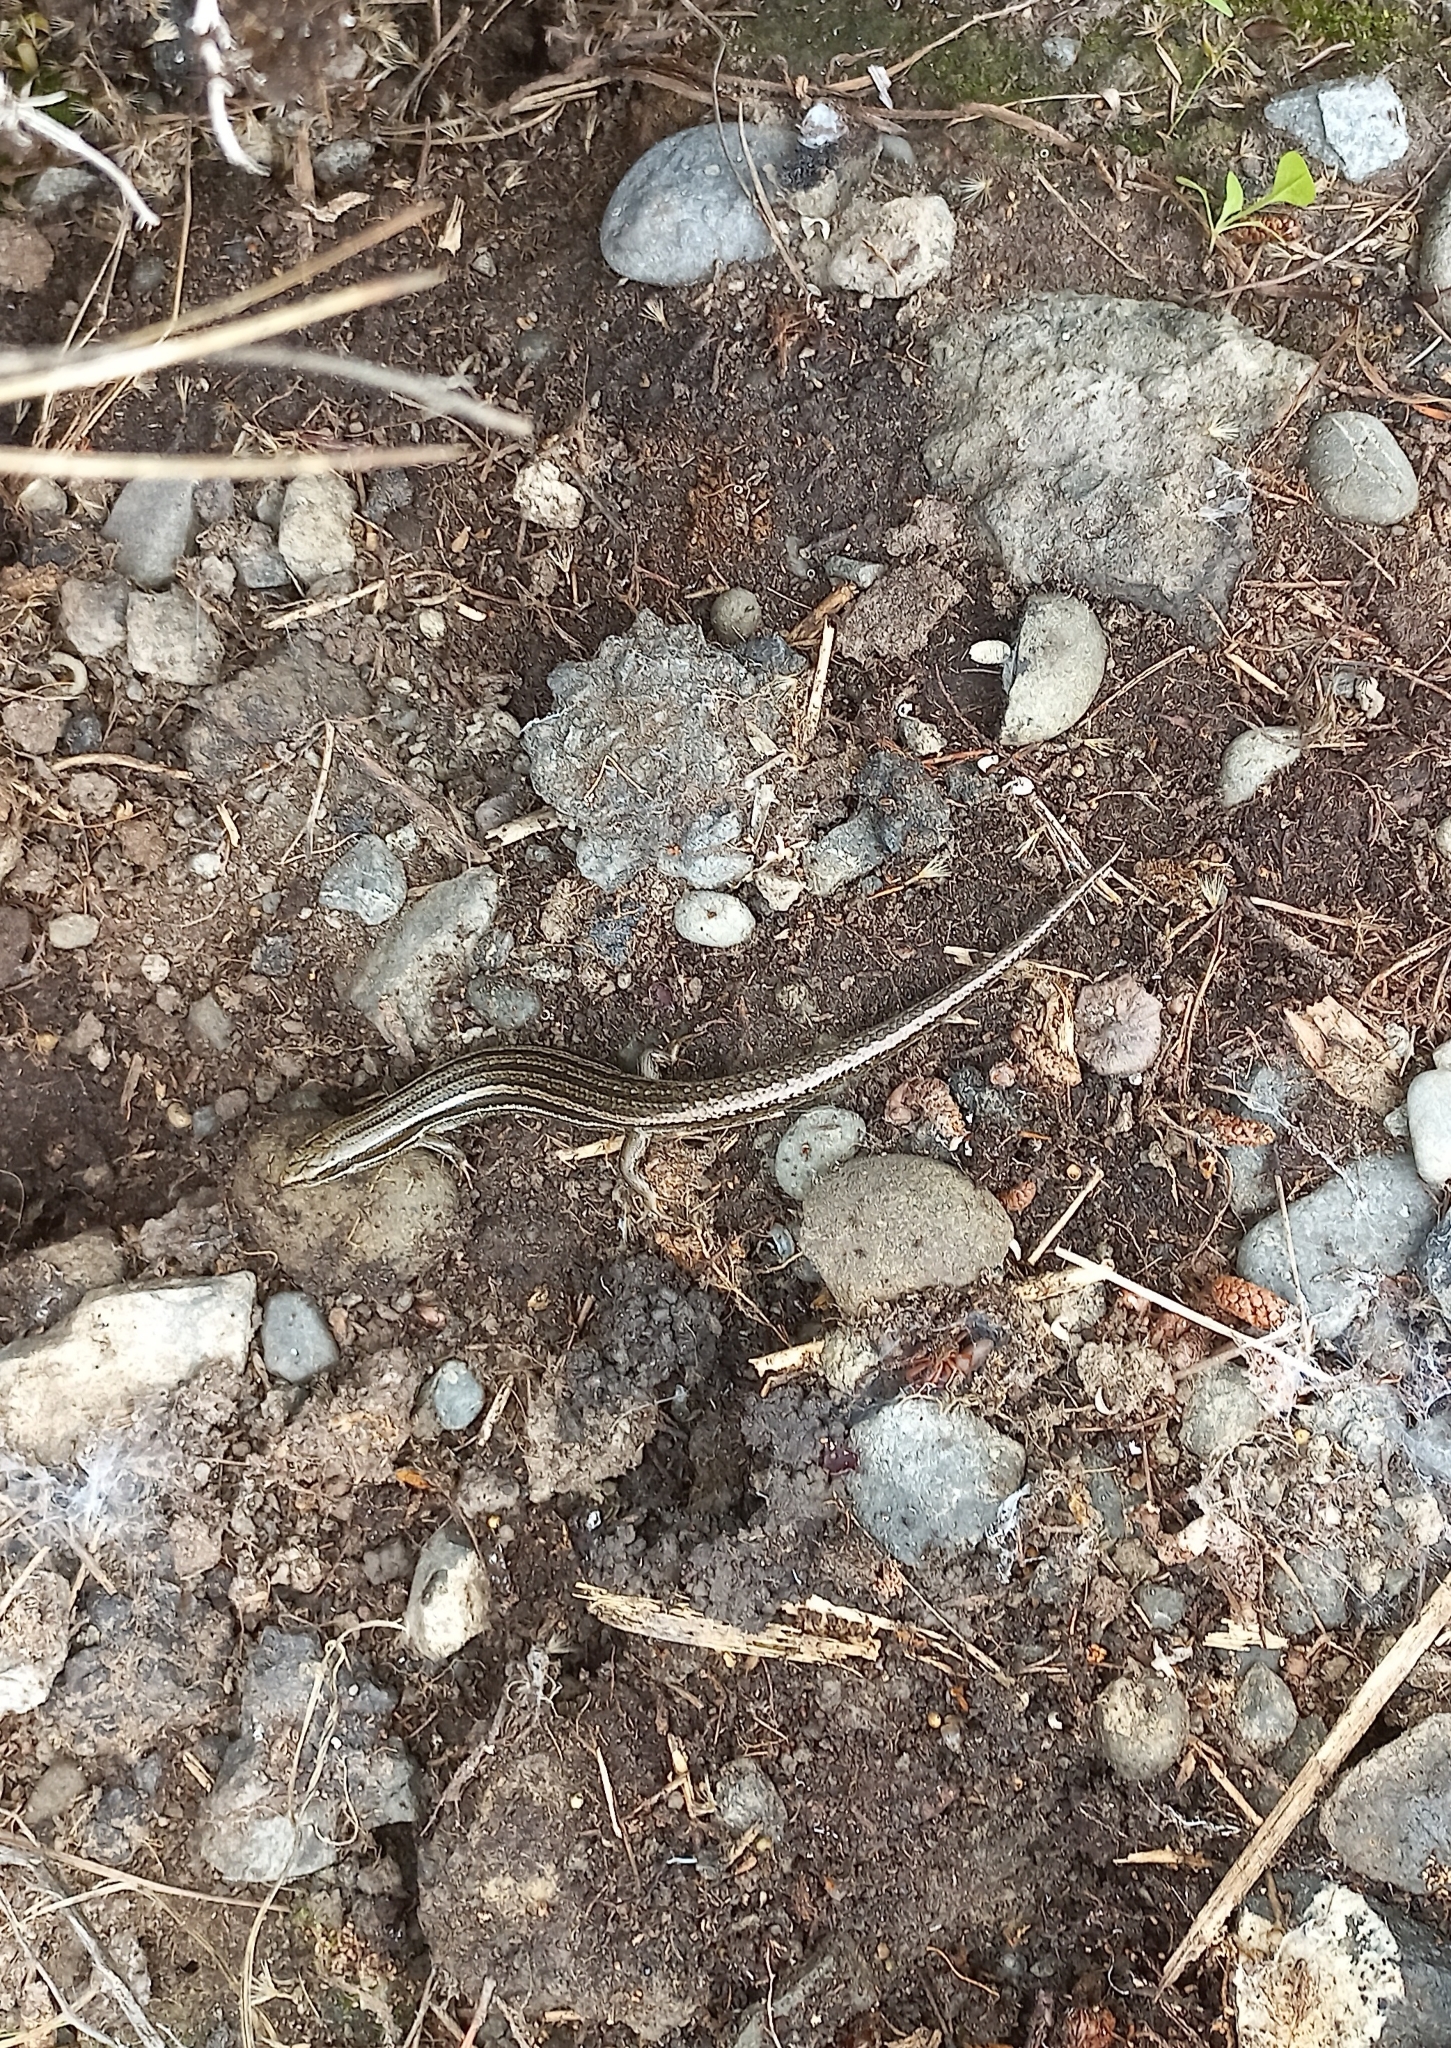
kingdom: Animalia
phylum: Chordata
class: Squamata
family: Scincidae
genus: Oligosoma
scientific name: Oligosoma maccanni
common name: Mccann’s skink
